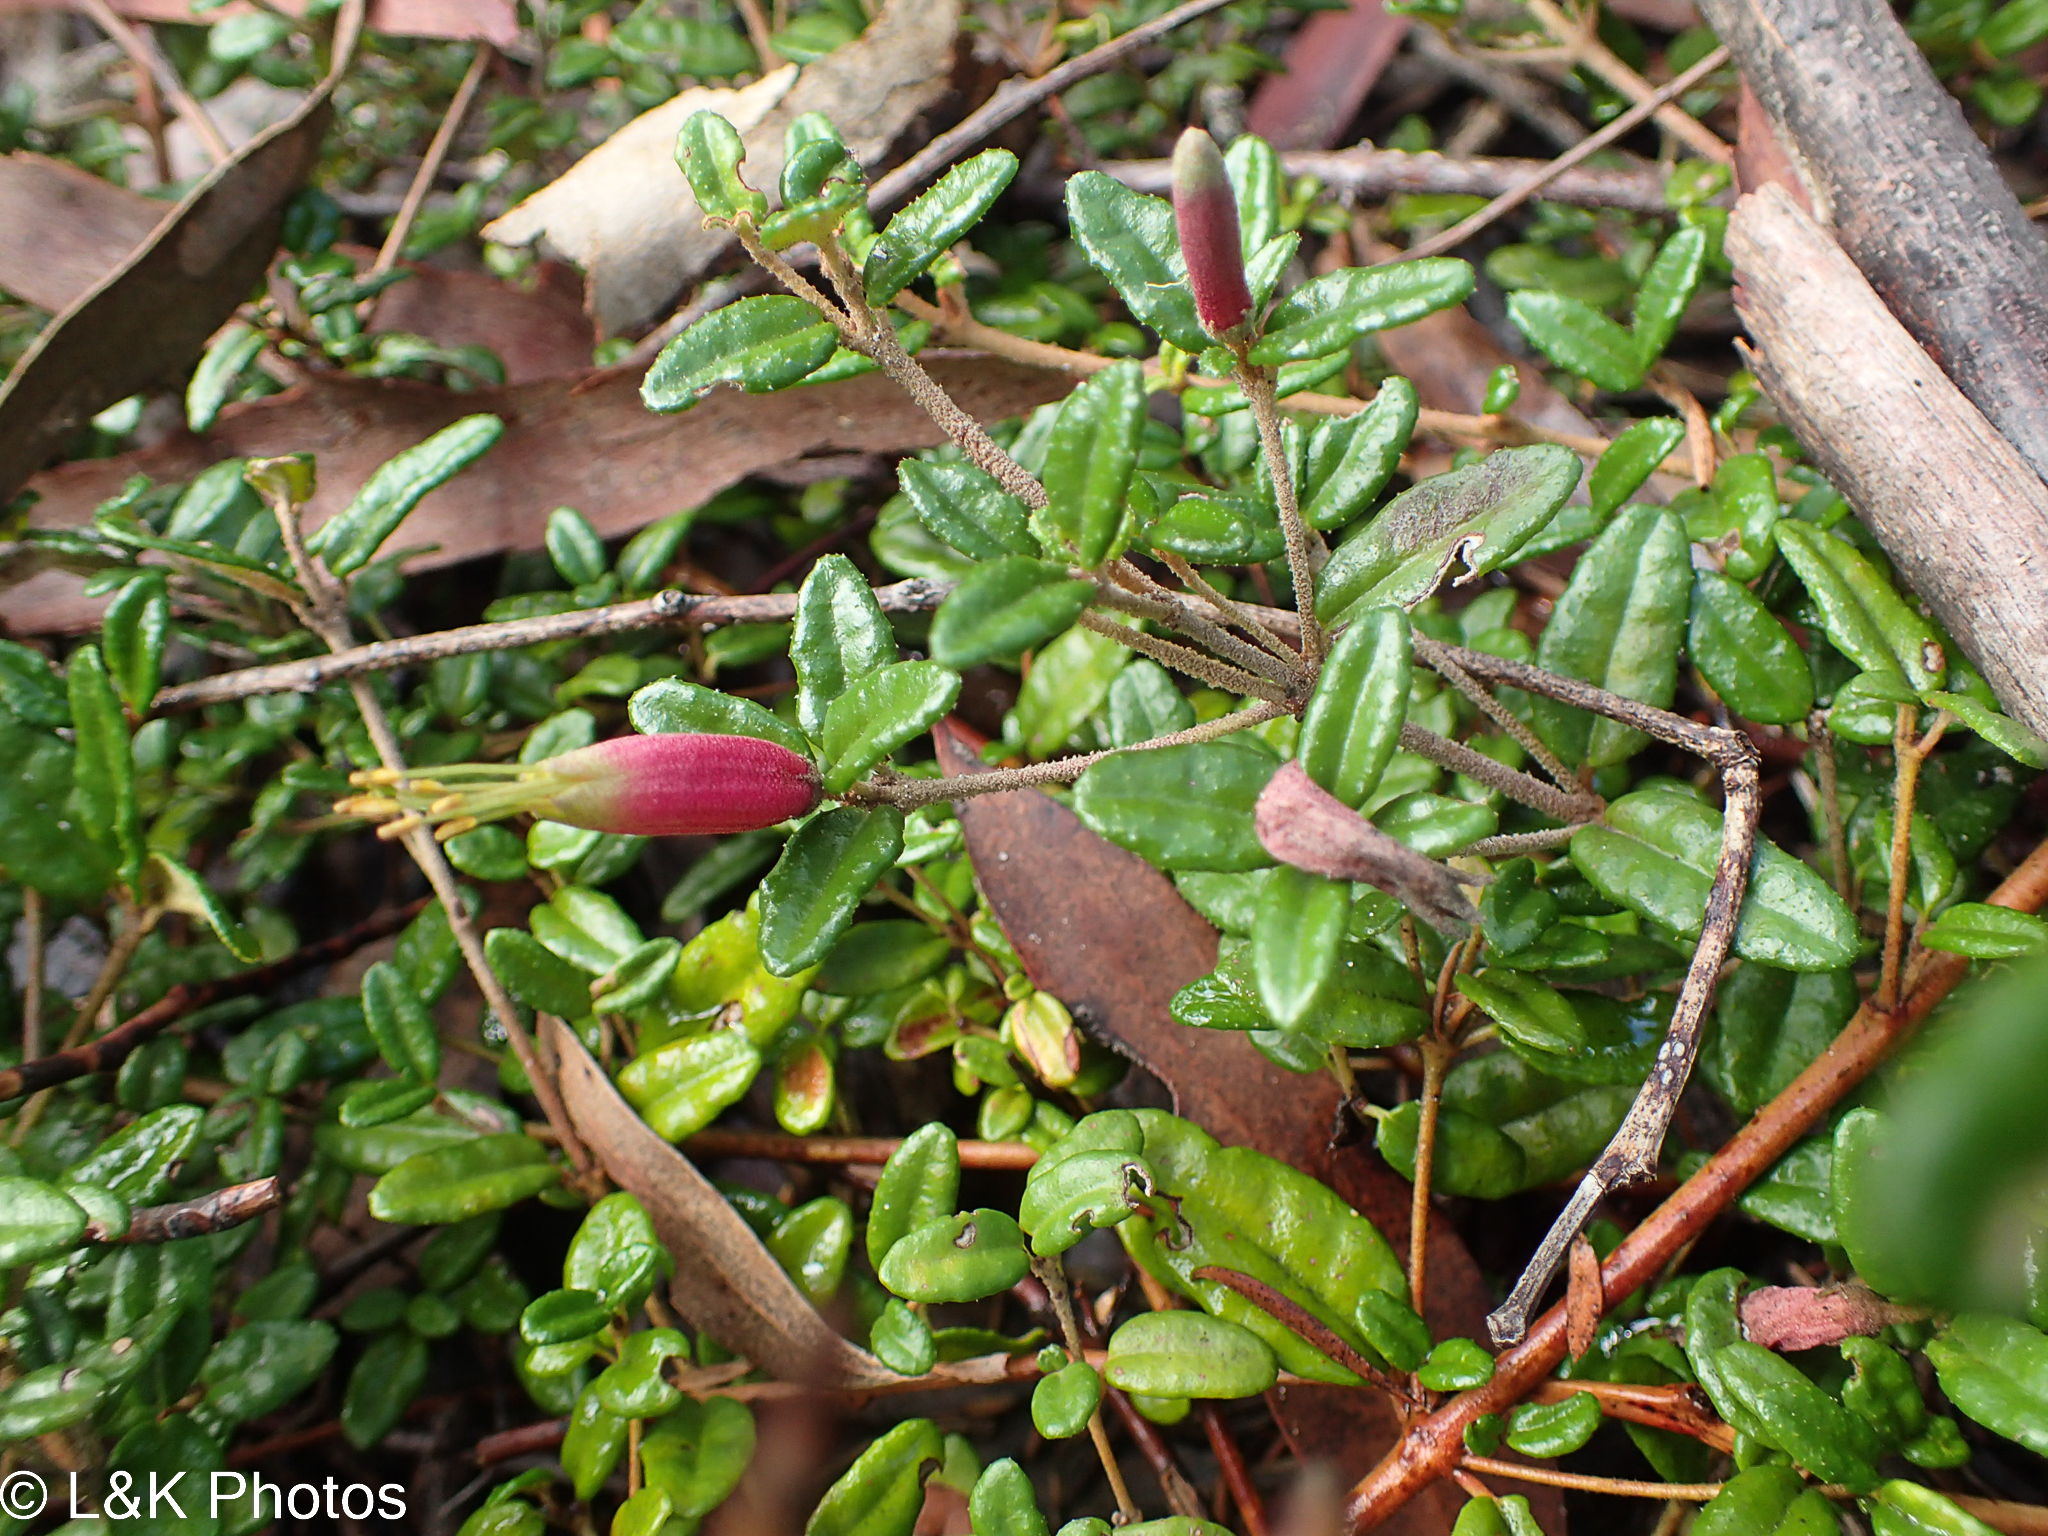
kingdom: Plantae
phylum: Tracheophyta
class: Magnoliopsida
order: Sapindales
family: Rutaceae
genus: Correa
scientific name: Correa decumbens
